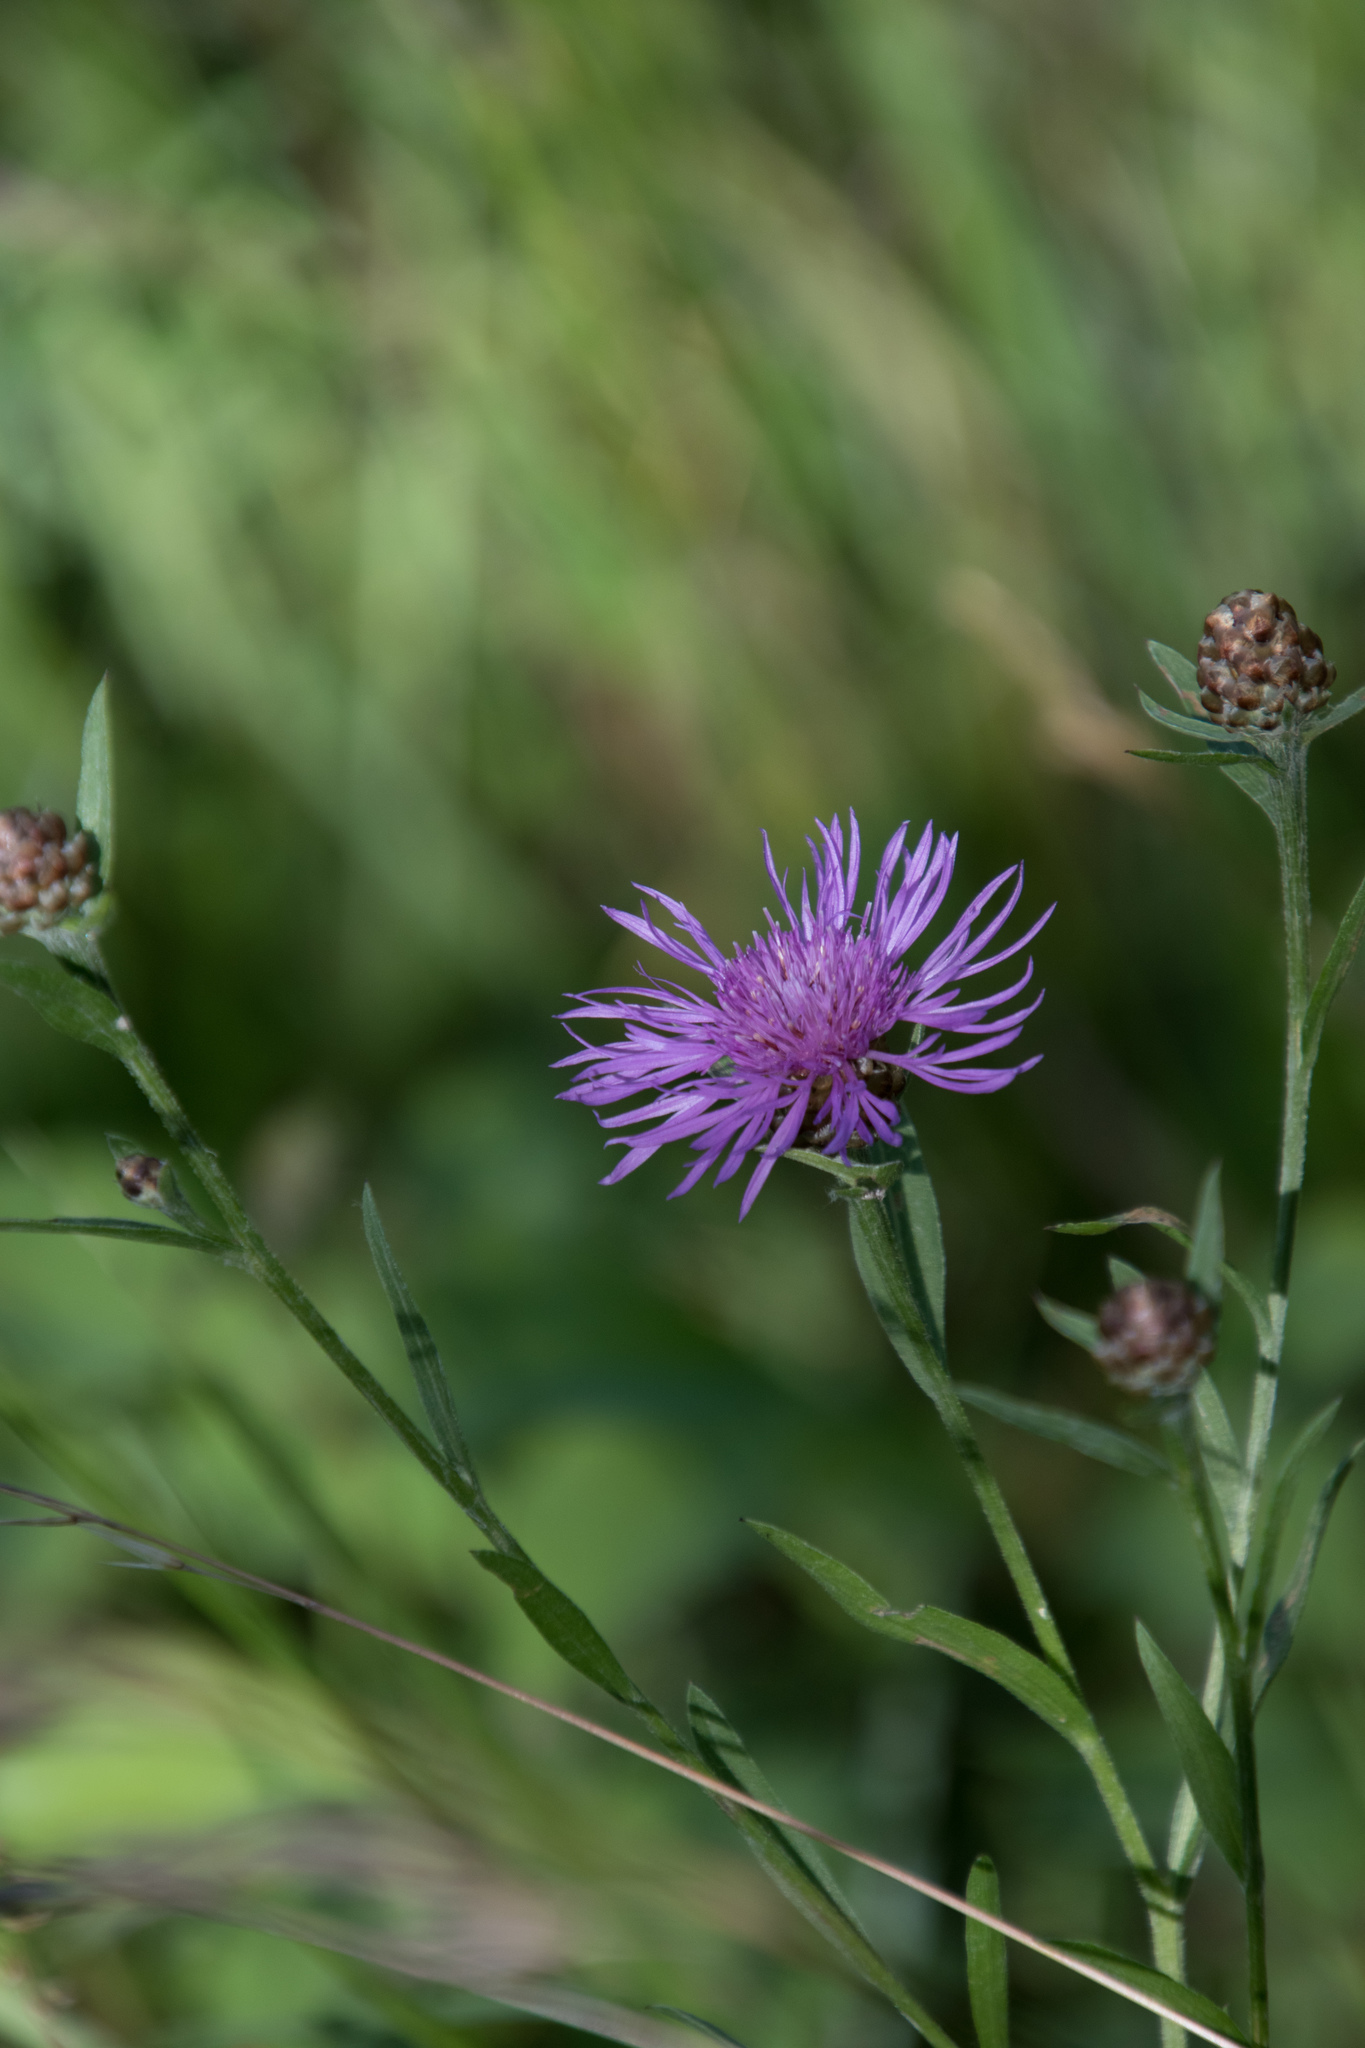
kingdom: Plantae
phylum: Tracheophyta
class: Magnoliopsida
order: Asterales
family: Asteraceae
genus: Centaurea
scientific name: Centaurea jacea
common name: Brown knapweed
